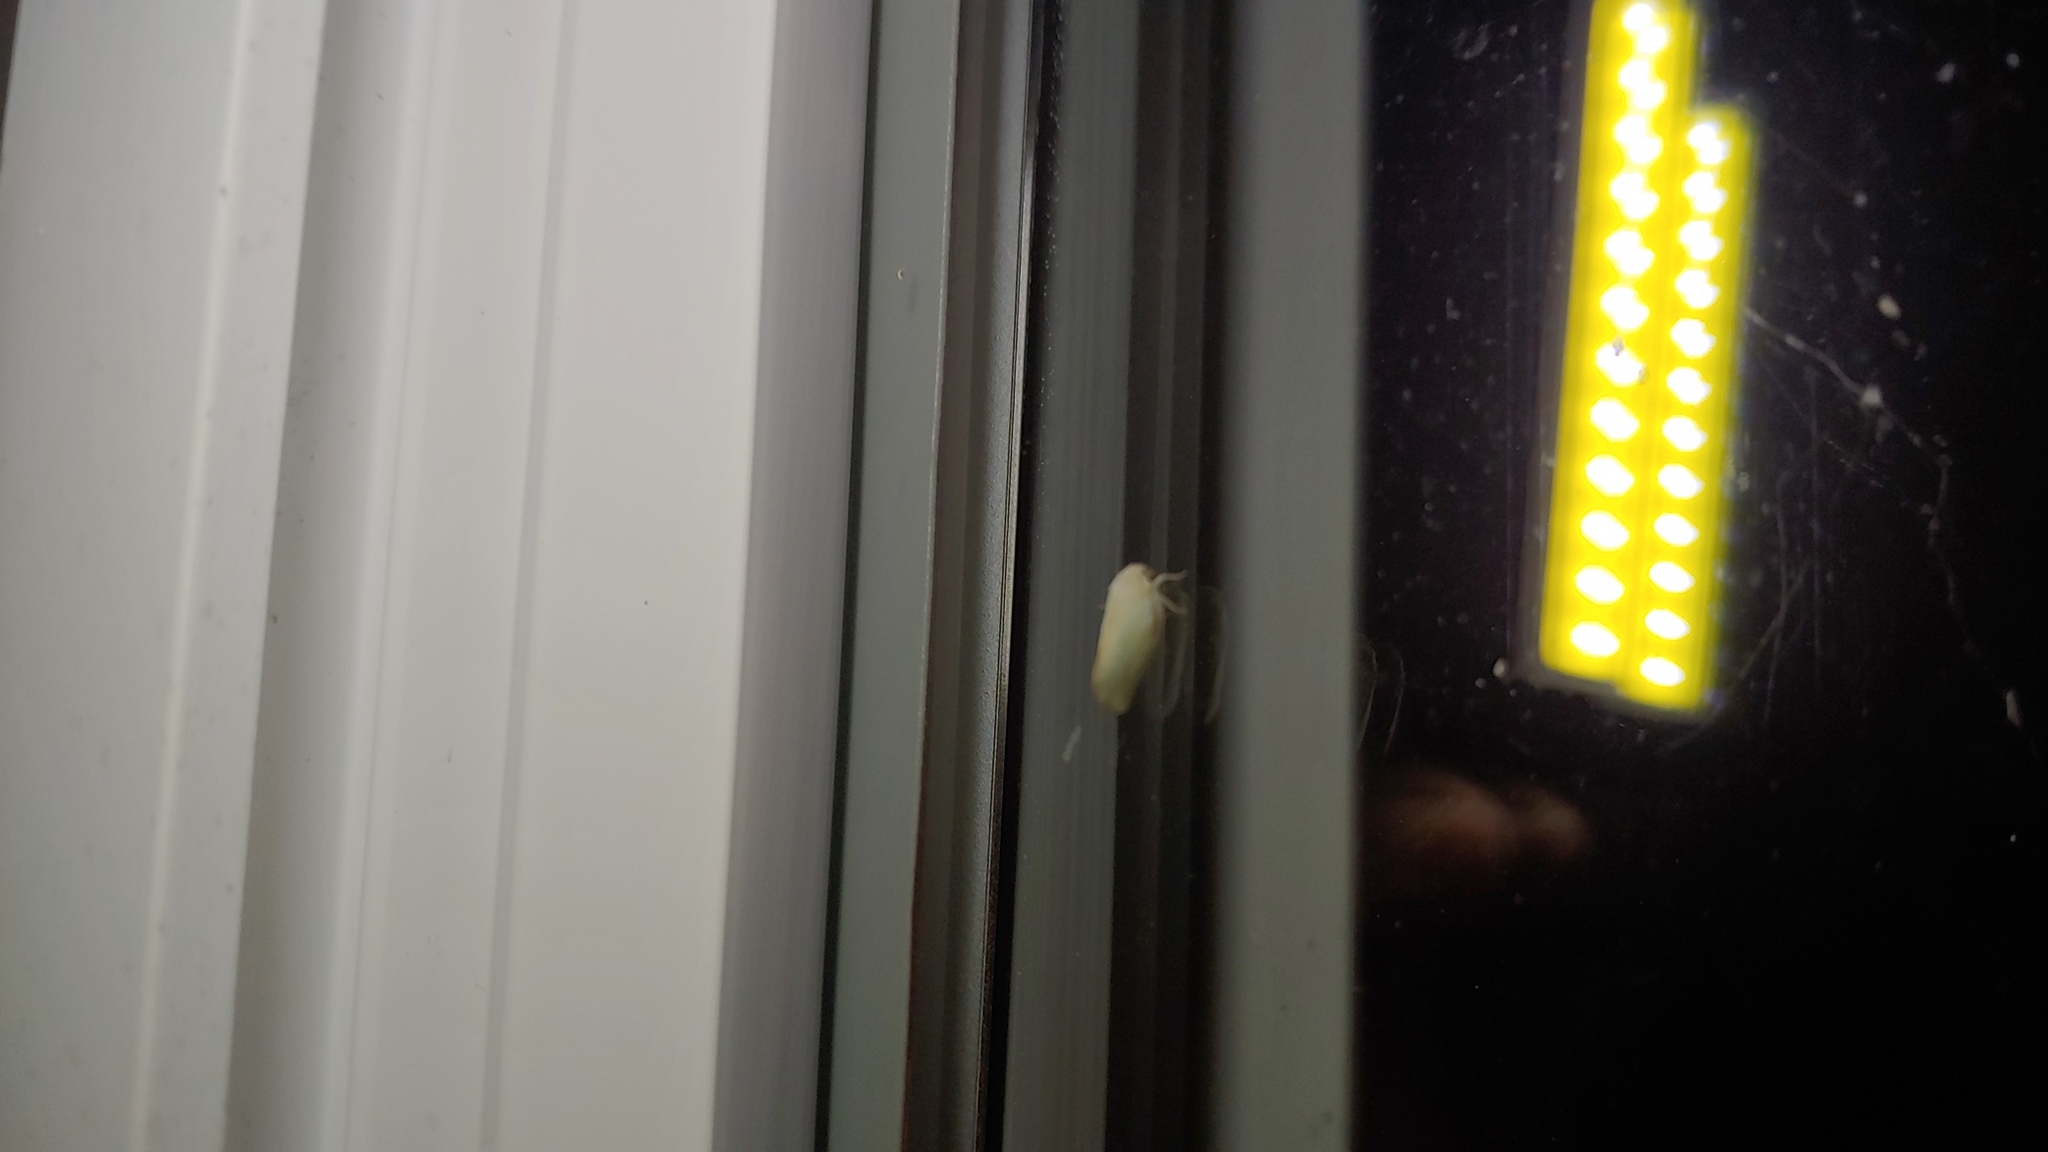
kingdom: Animalia
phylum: Arthropoda
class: Insecta
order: Hemiptera
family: Flatidae
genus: Ormenoides
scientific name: Ormenoides venusta
